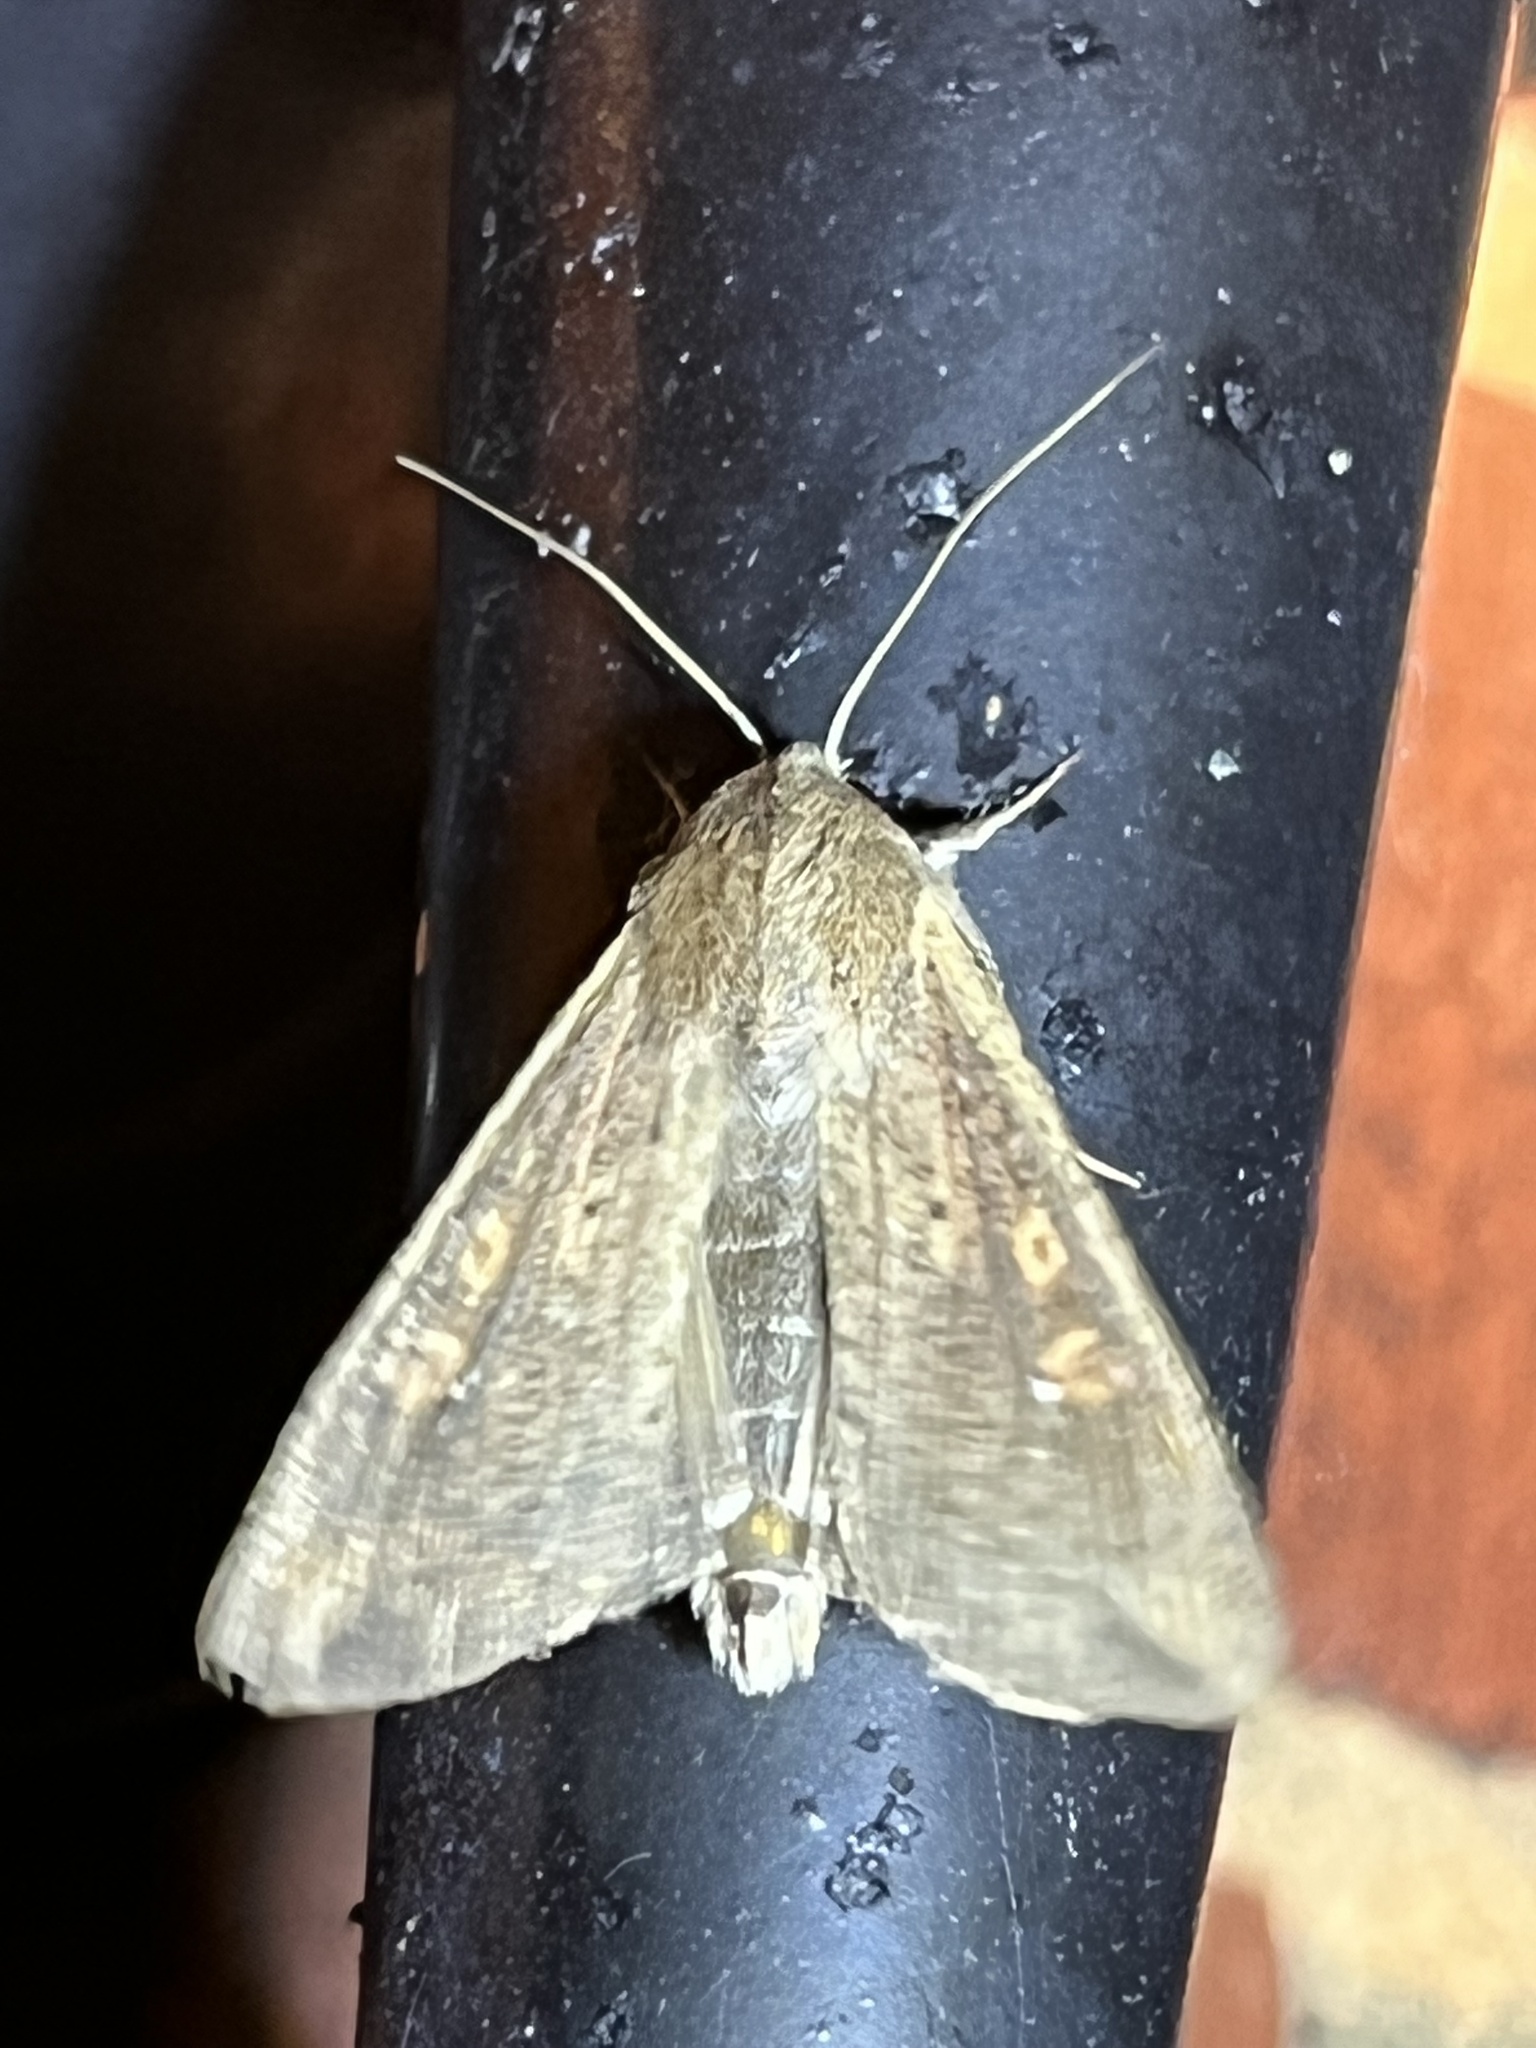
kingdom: Animalia
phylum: Arthropoda
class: Insecta
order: Lepidoptera
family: Noctuidae
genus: Mythimna
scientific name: Mythimna unipuncta
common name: White-speck
